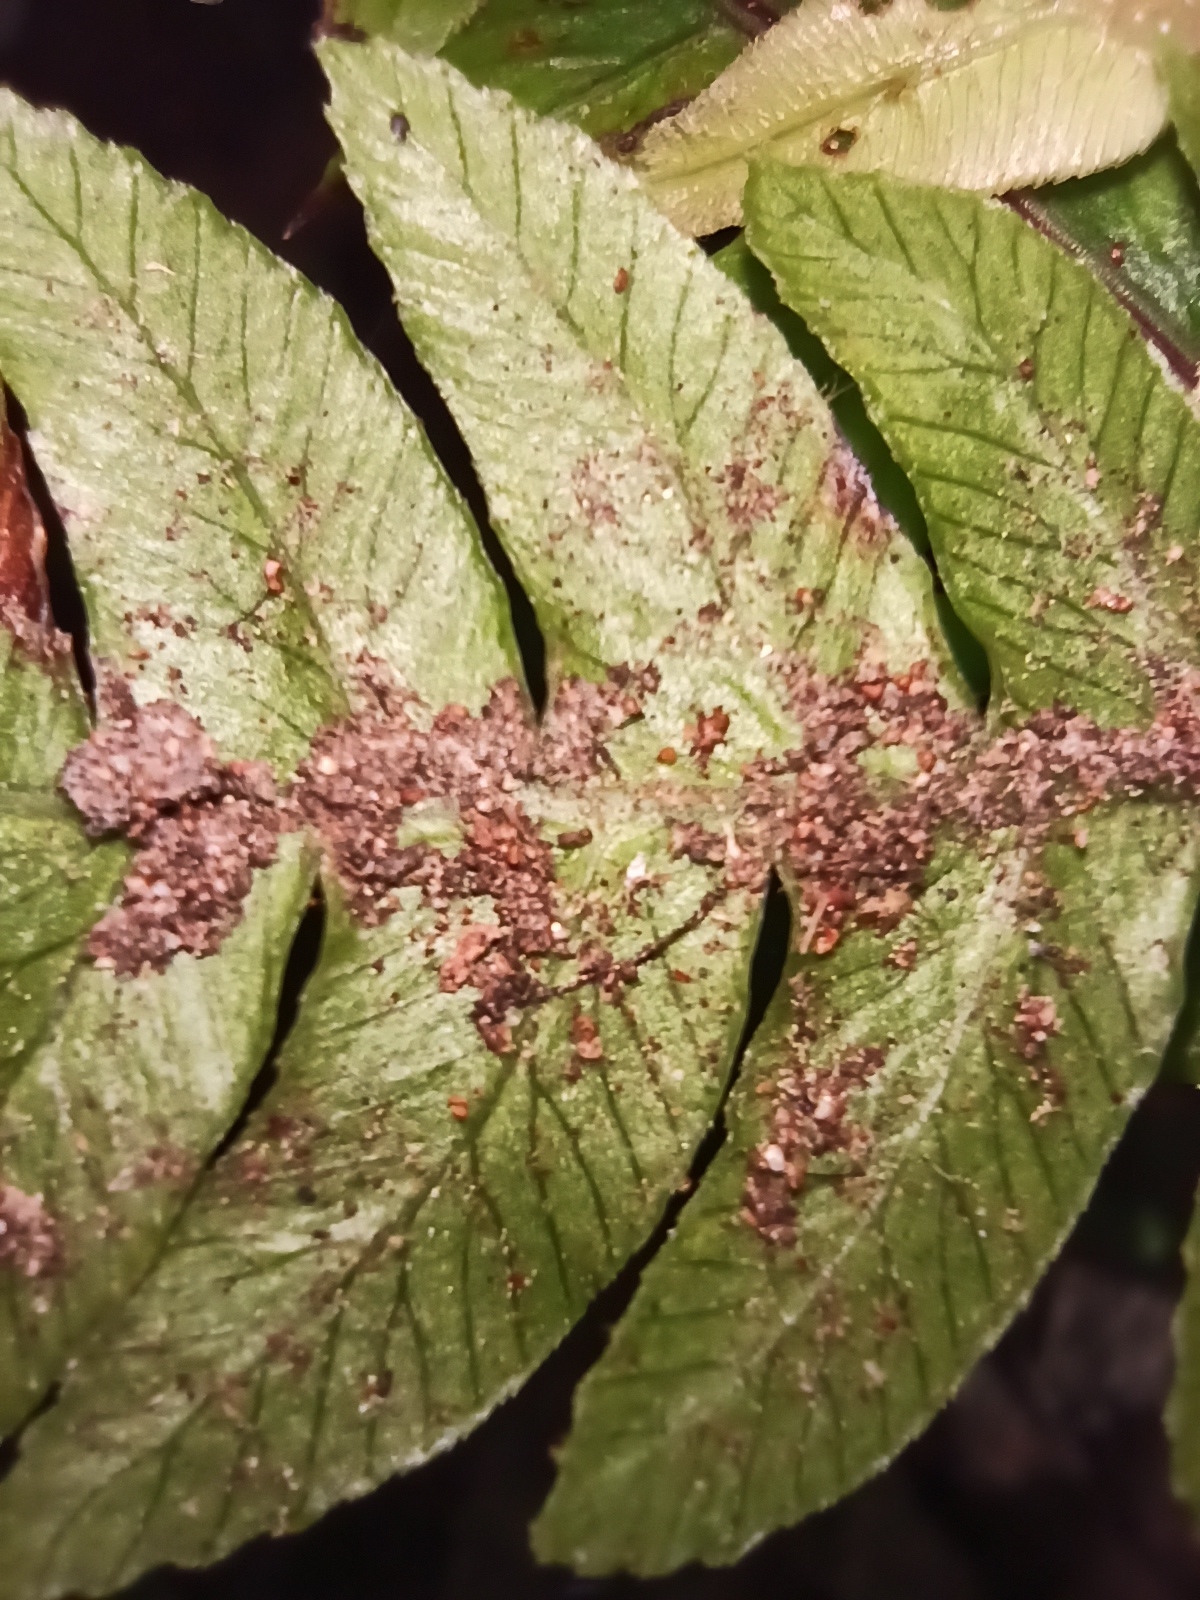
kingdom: Plantae
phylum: Tracheophyta
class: Polypodiopsida
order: Polypodiales
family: Blechnaceae
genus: Austroblechnum
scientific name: Austroblechnum lanceolatum
